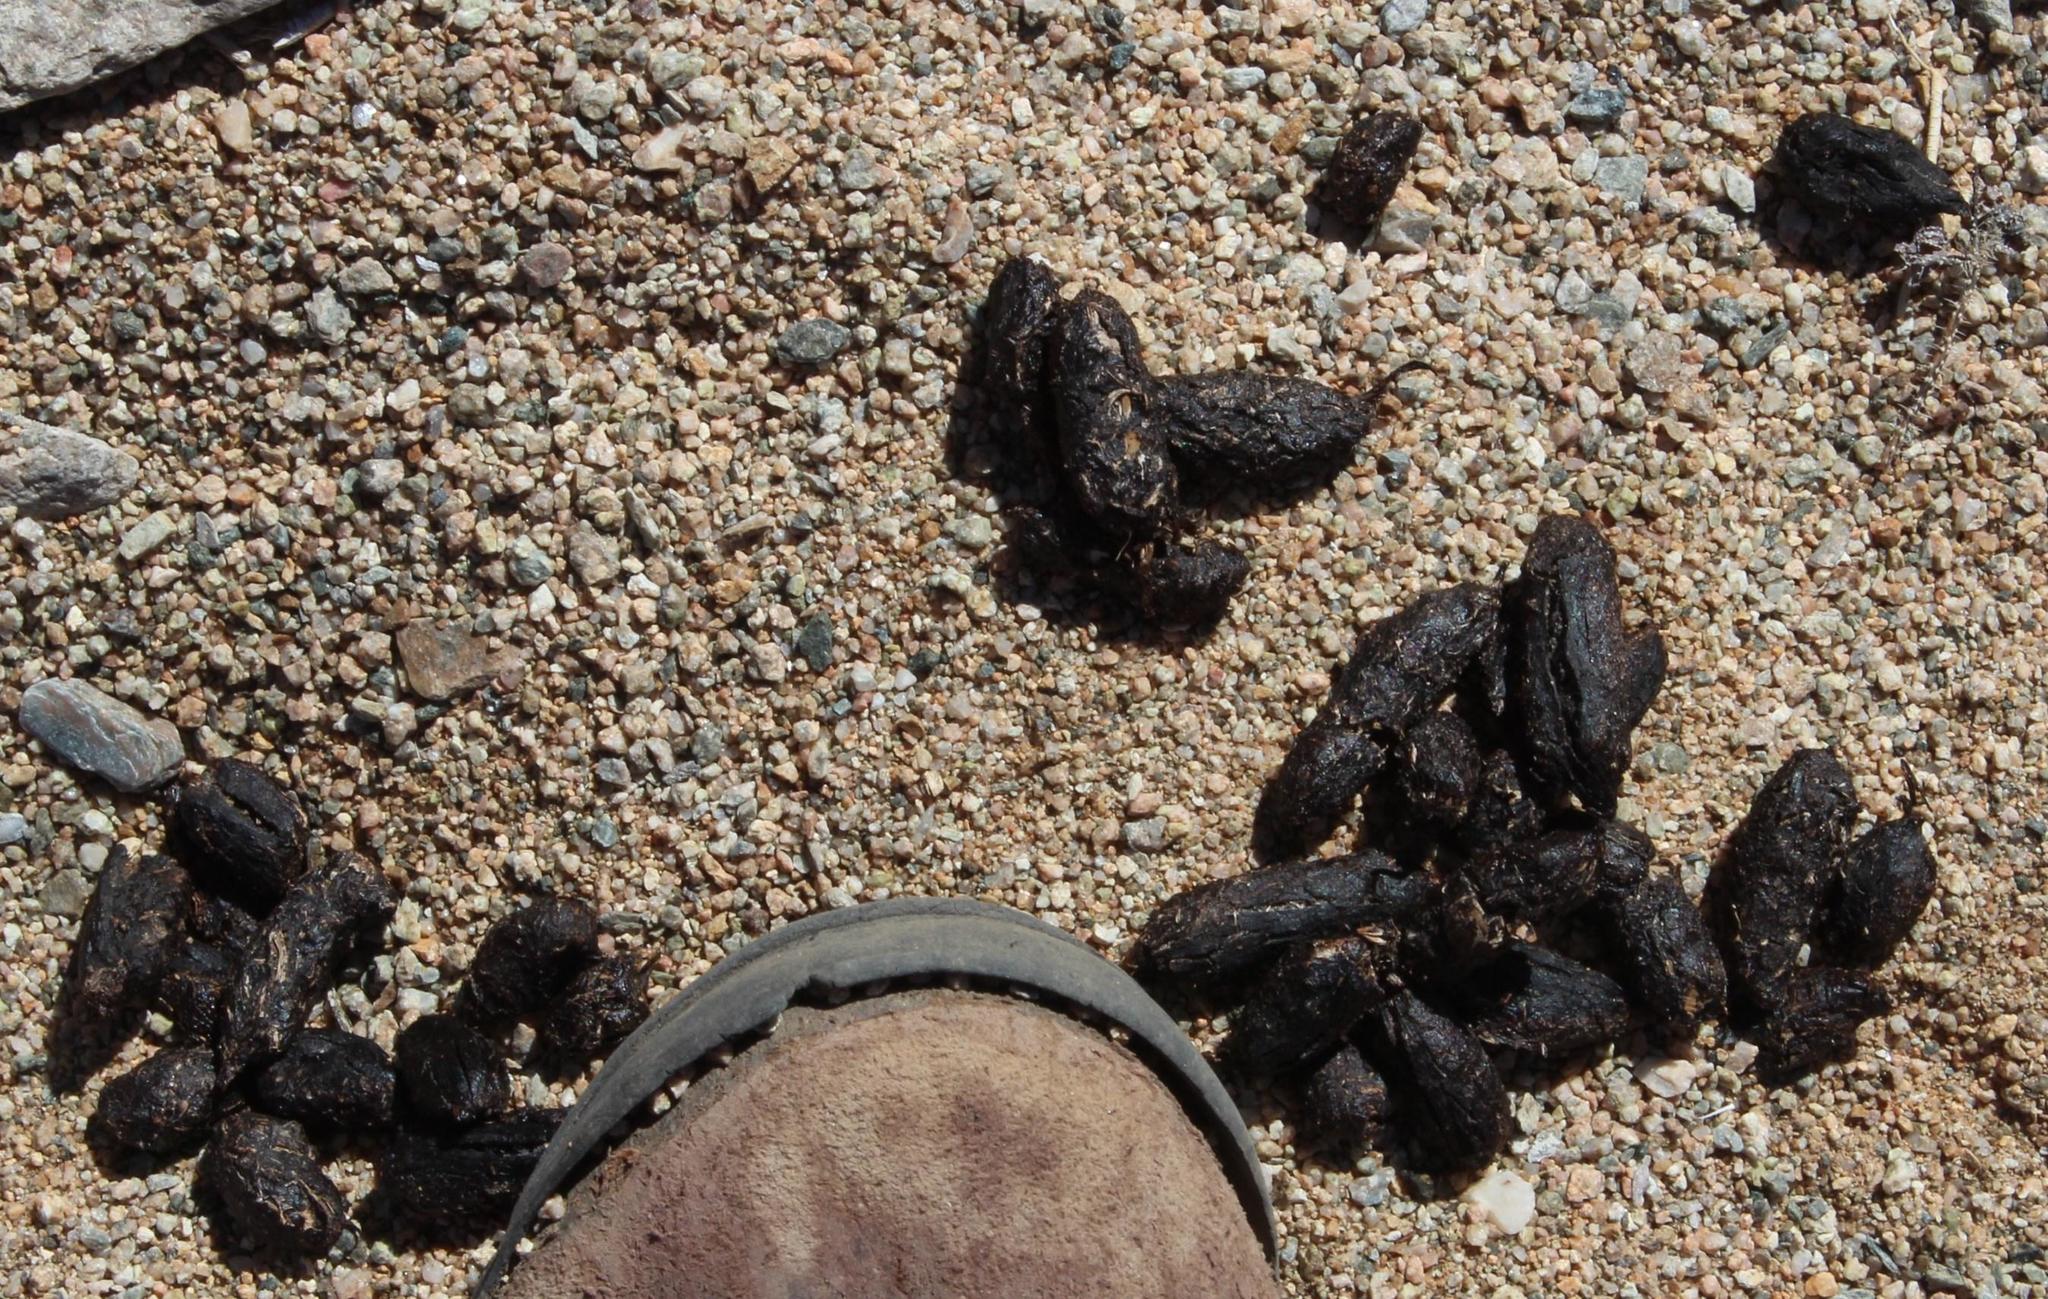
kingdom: Animalia
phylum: Chordata
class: Mammalia
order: Carnivora
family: Herpestidae
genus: Galerella
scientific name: Galerella pulverulenta
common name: Cape gray mongoose
